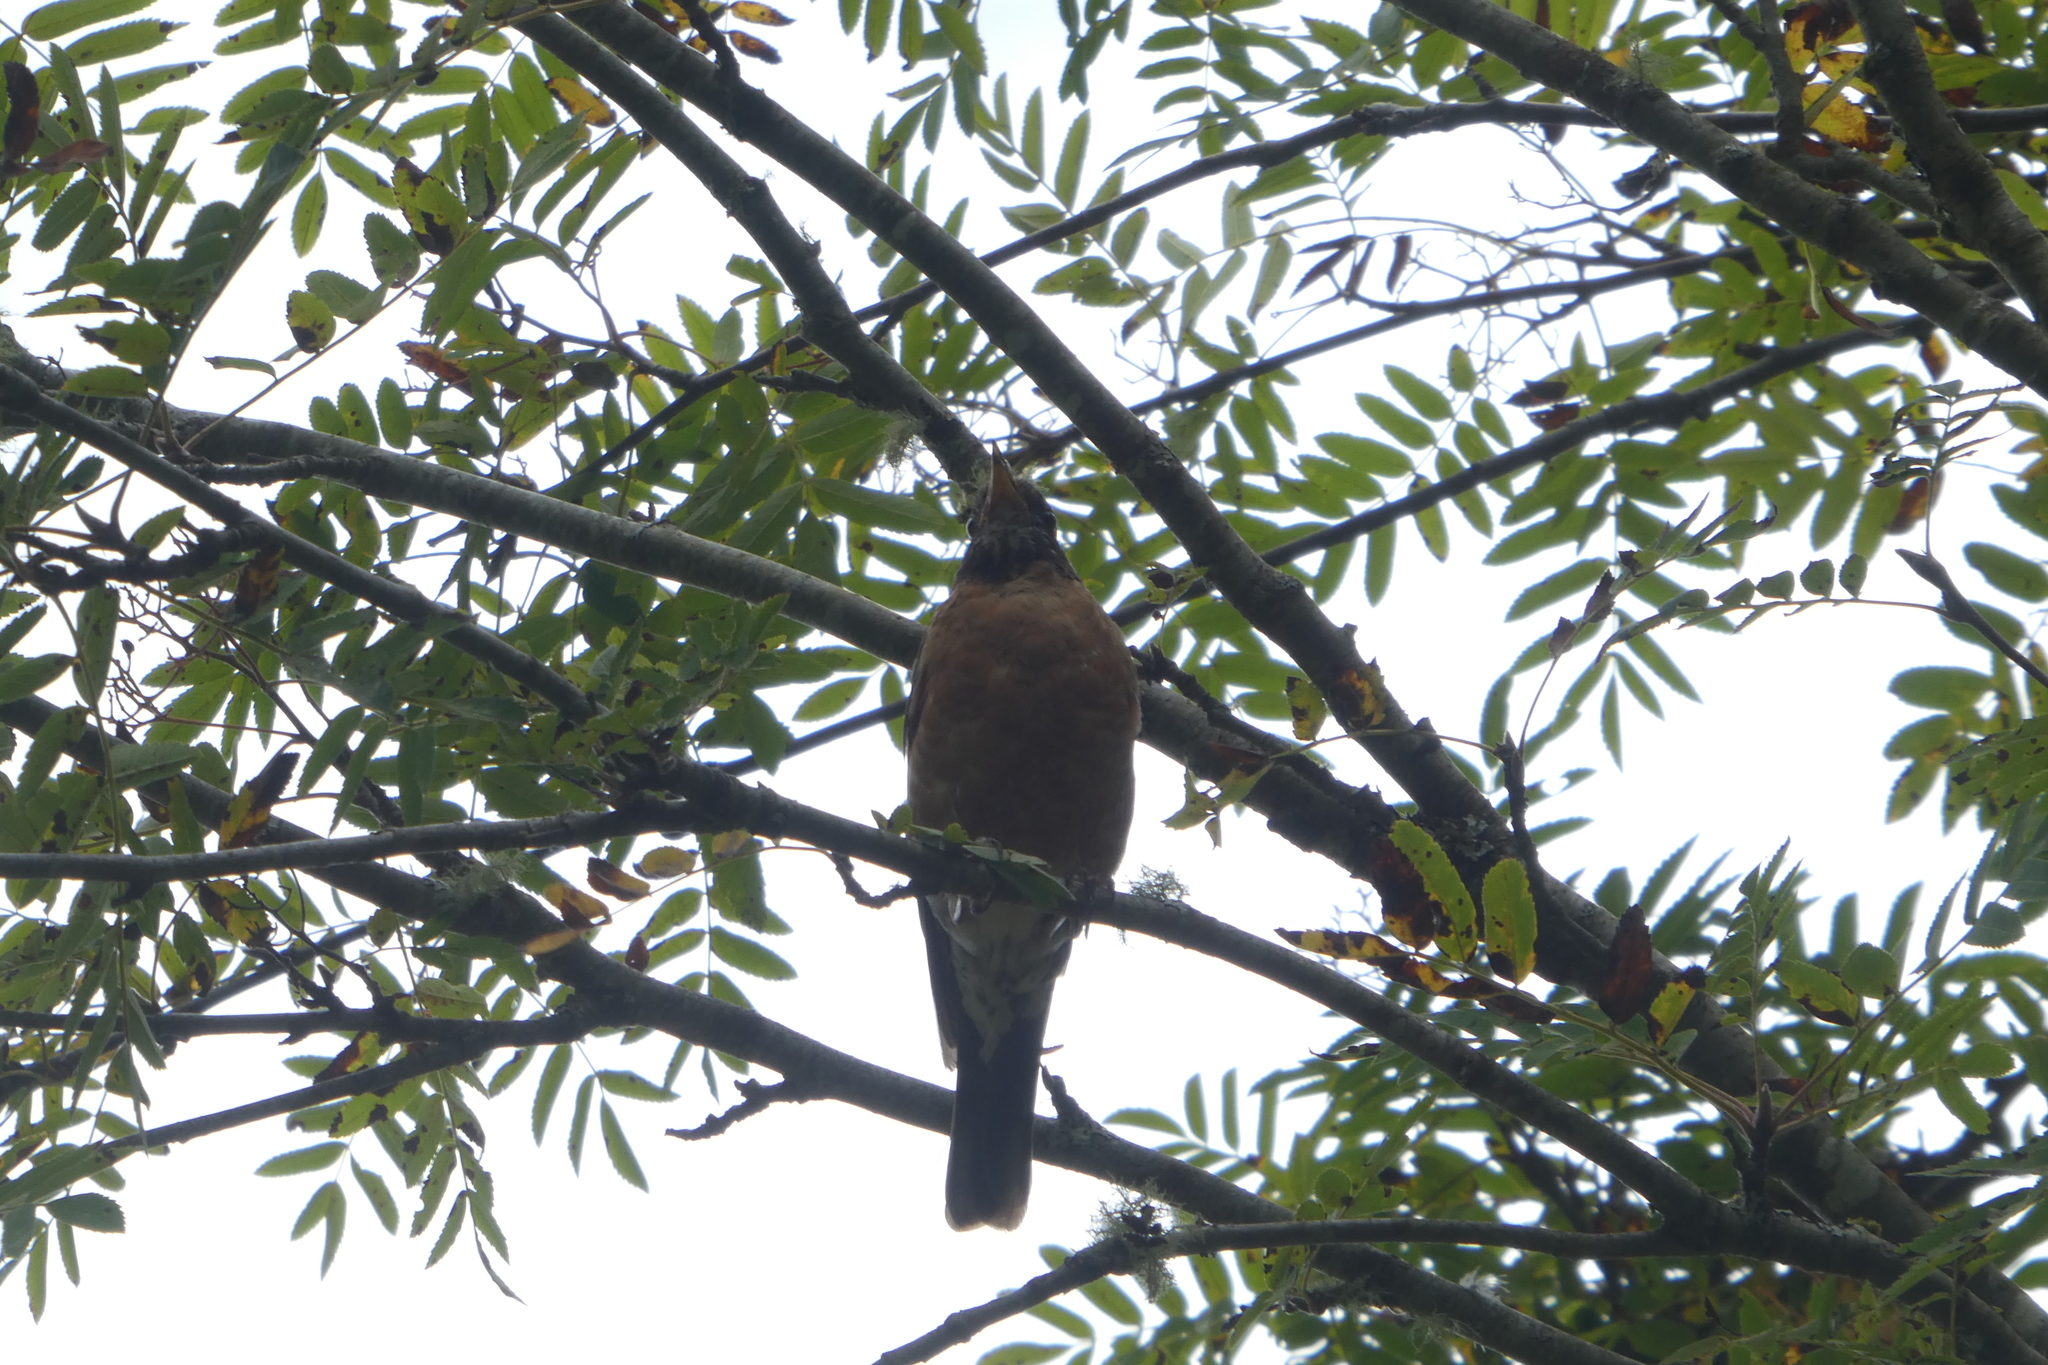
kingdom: Animalia
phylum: Chordata
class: Aves
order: Passeriformes
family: Turdidae
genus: Turdus
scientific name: Turdus migratorius
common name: American robin
